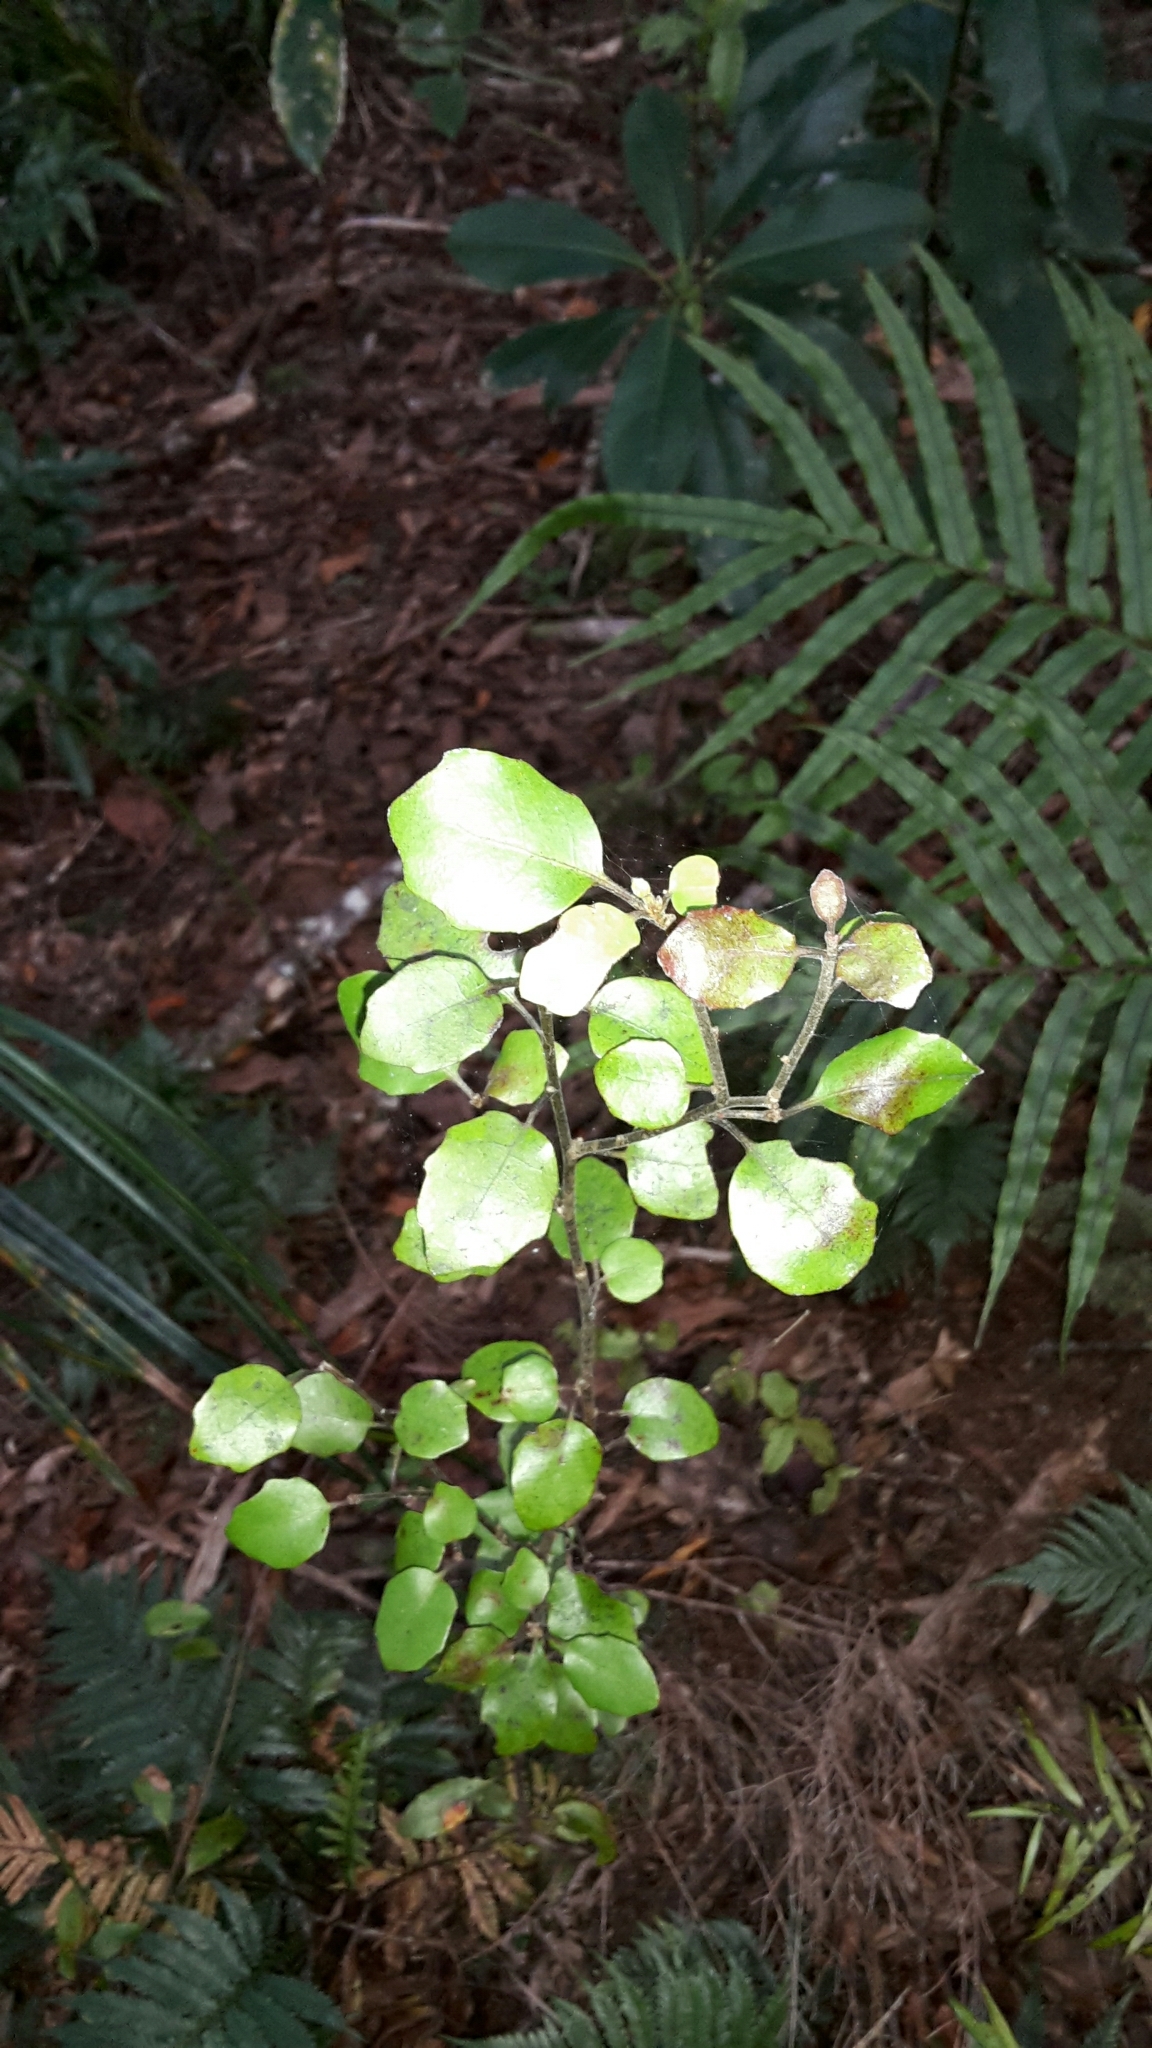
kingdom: Plantae
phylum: Tracheophyta
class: Magnoliopsida
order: Asterales
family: Alseuosmiaceae
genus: Alseuosmia
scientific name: Alseuosmia banksii
